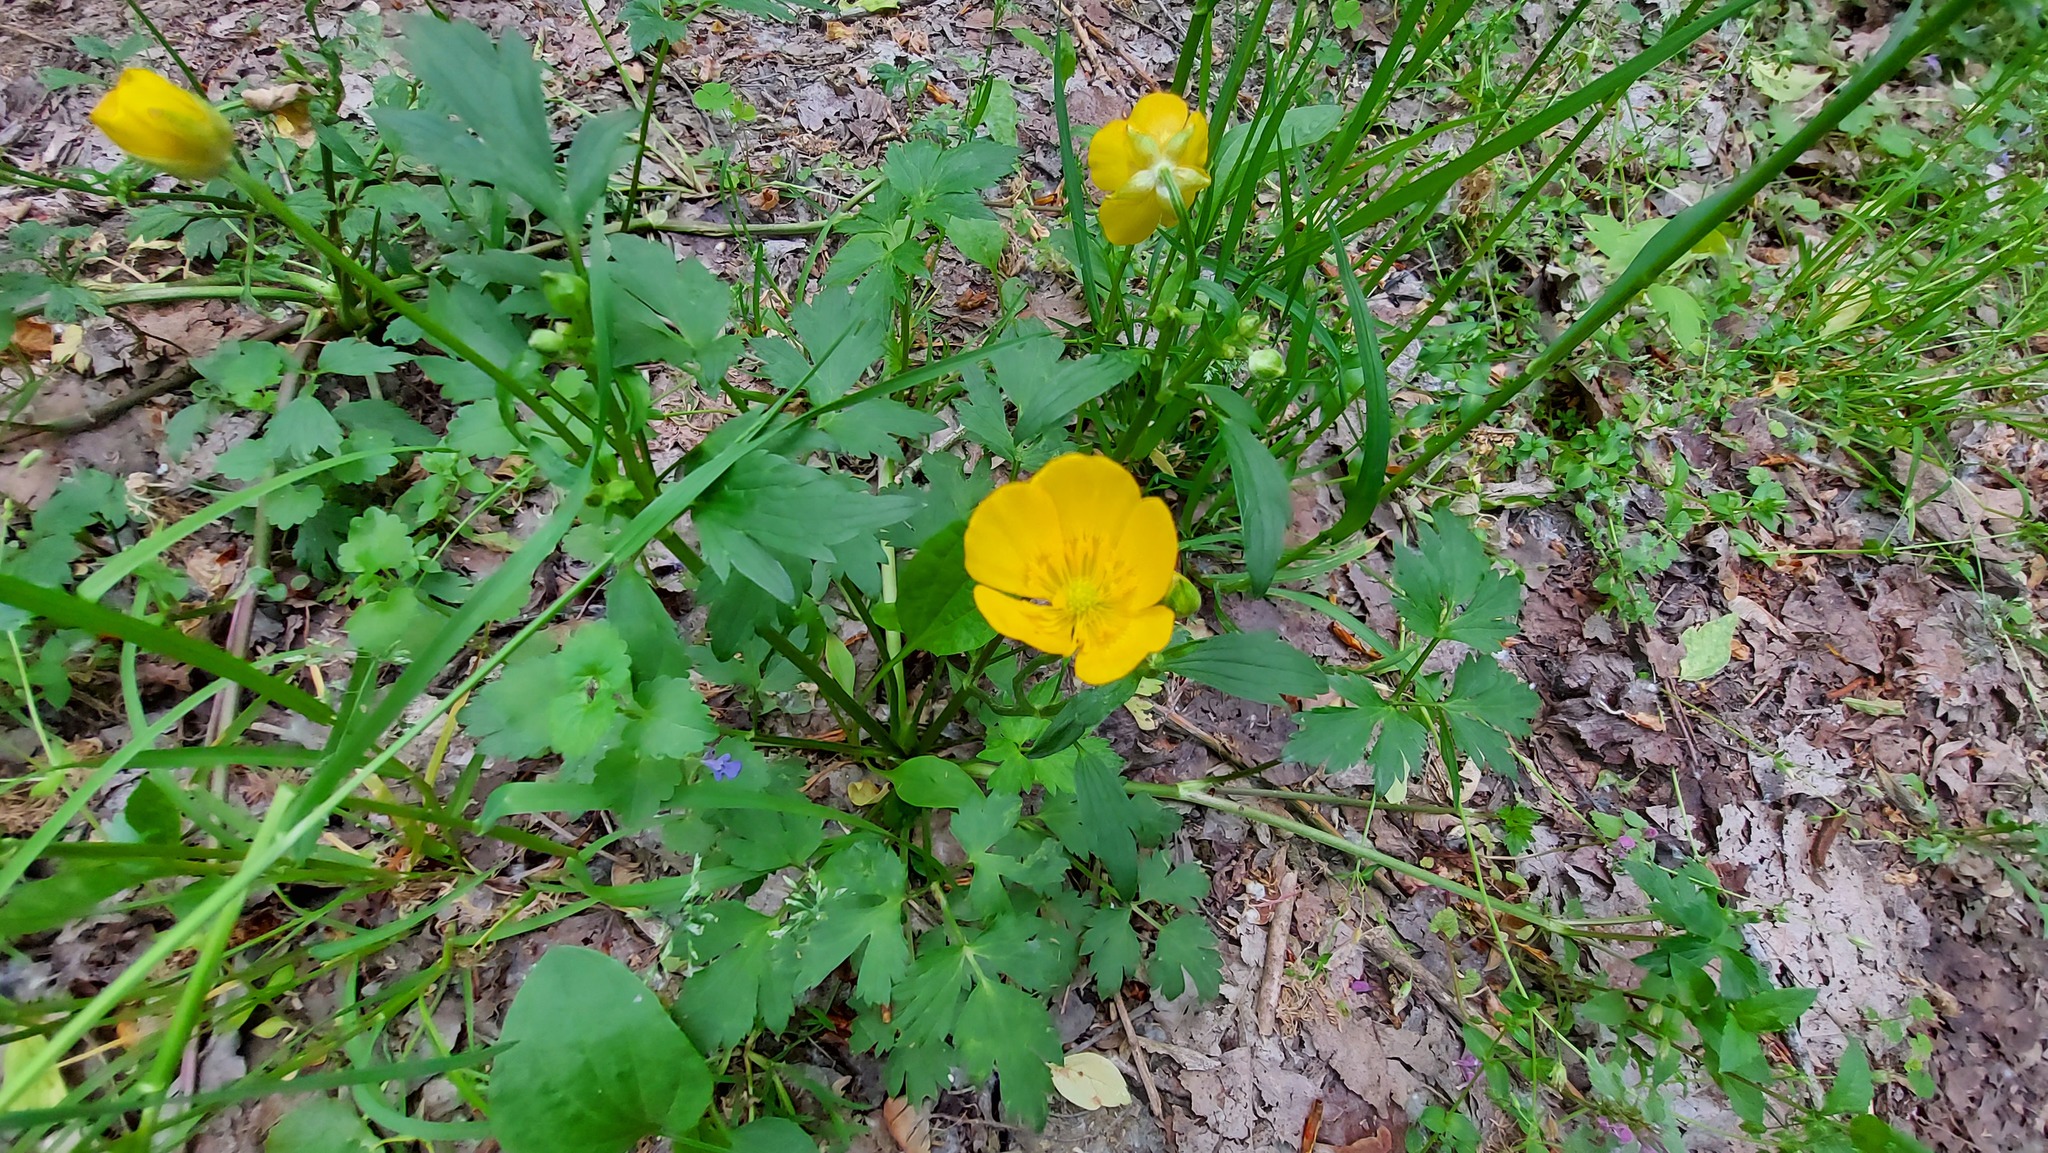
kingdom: Plantae
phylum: Tracheophyta
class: Magnoliopsida
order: Ranunculales
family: Ranunculaceae
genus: Ranunculus
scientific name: Ranunculus repens
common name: Creeping buttercup
